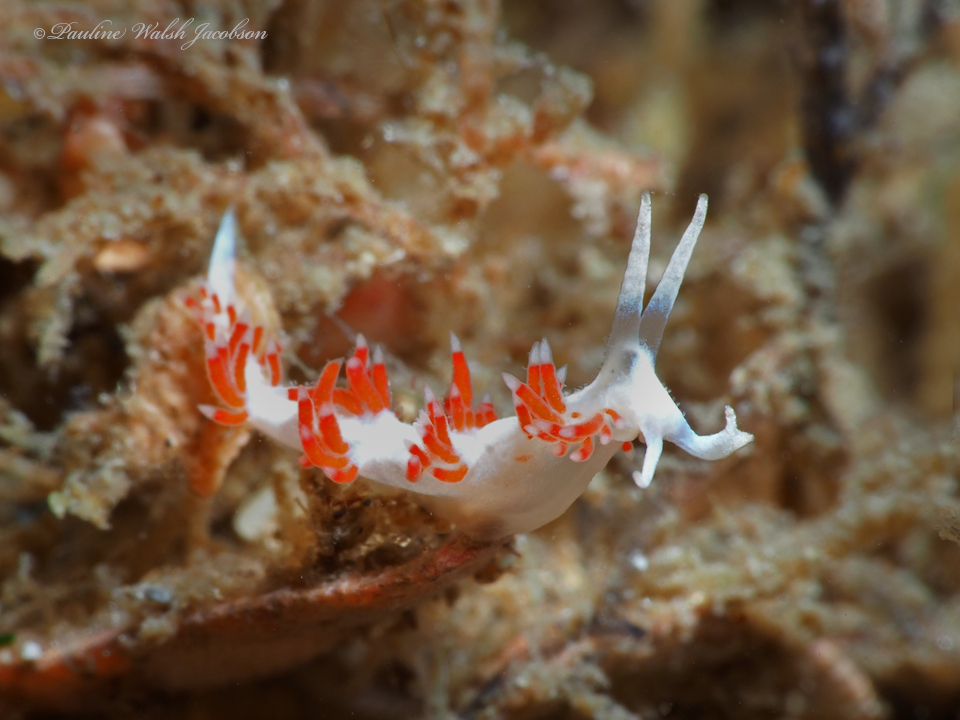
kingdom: Animalia
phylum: Mollusca
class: Gastropoda
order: Nudibranchia
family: Flabellinidae
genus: Flabellina
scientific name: Flabellina dushia
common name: Dushia flabellina
